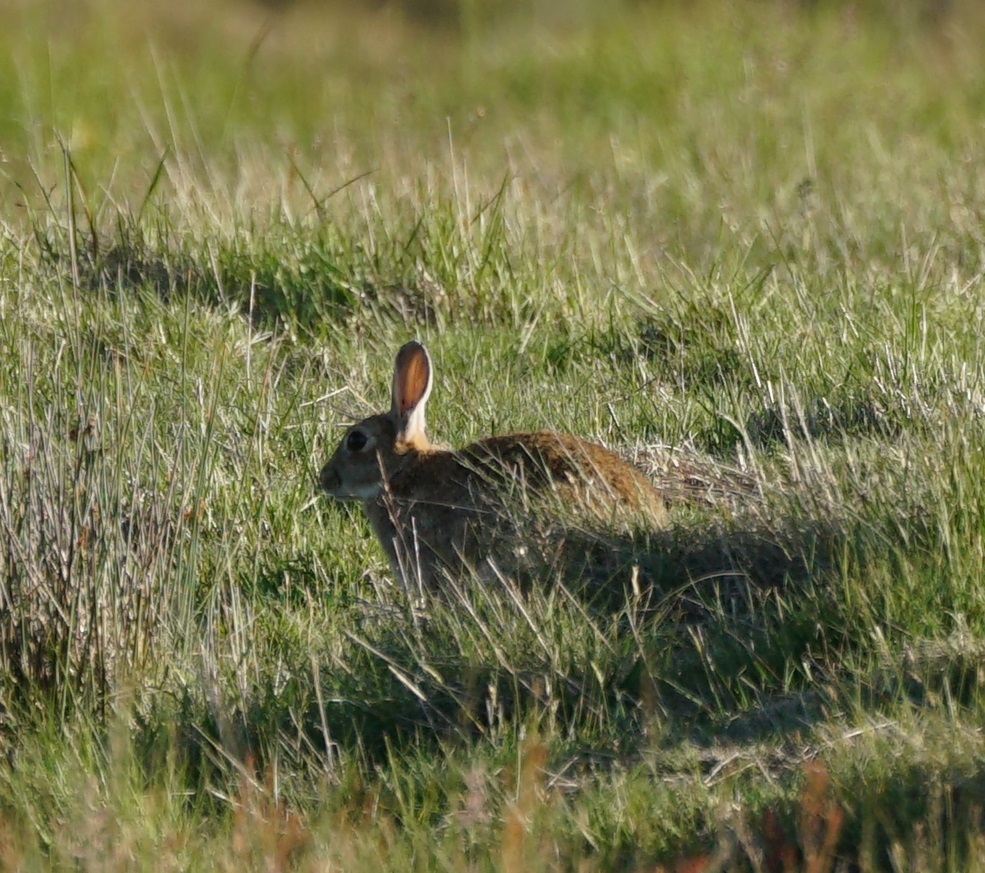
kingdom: Animalia
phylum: Chordata
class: Mammalia
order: Lagomorpha
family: Leporidae
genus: Oryctolagus
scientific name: Oryctolagus cuniculus
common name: European rabbit
